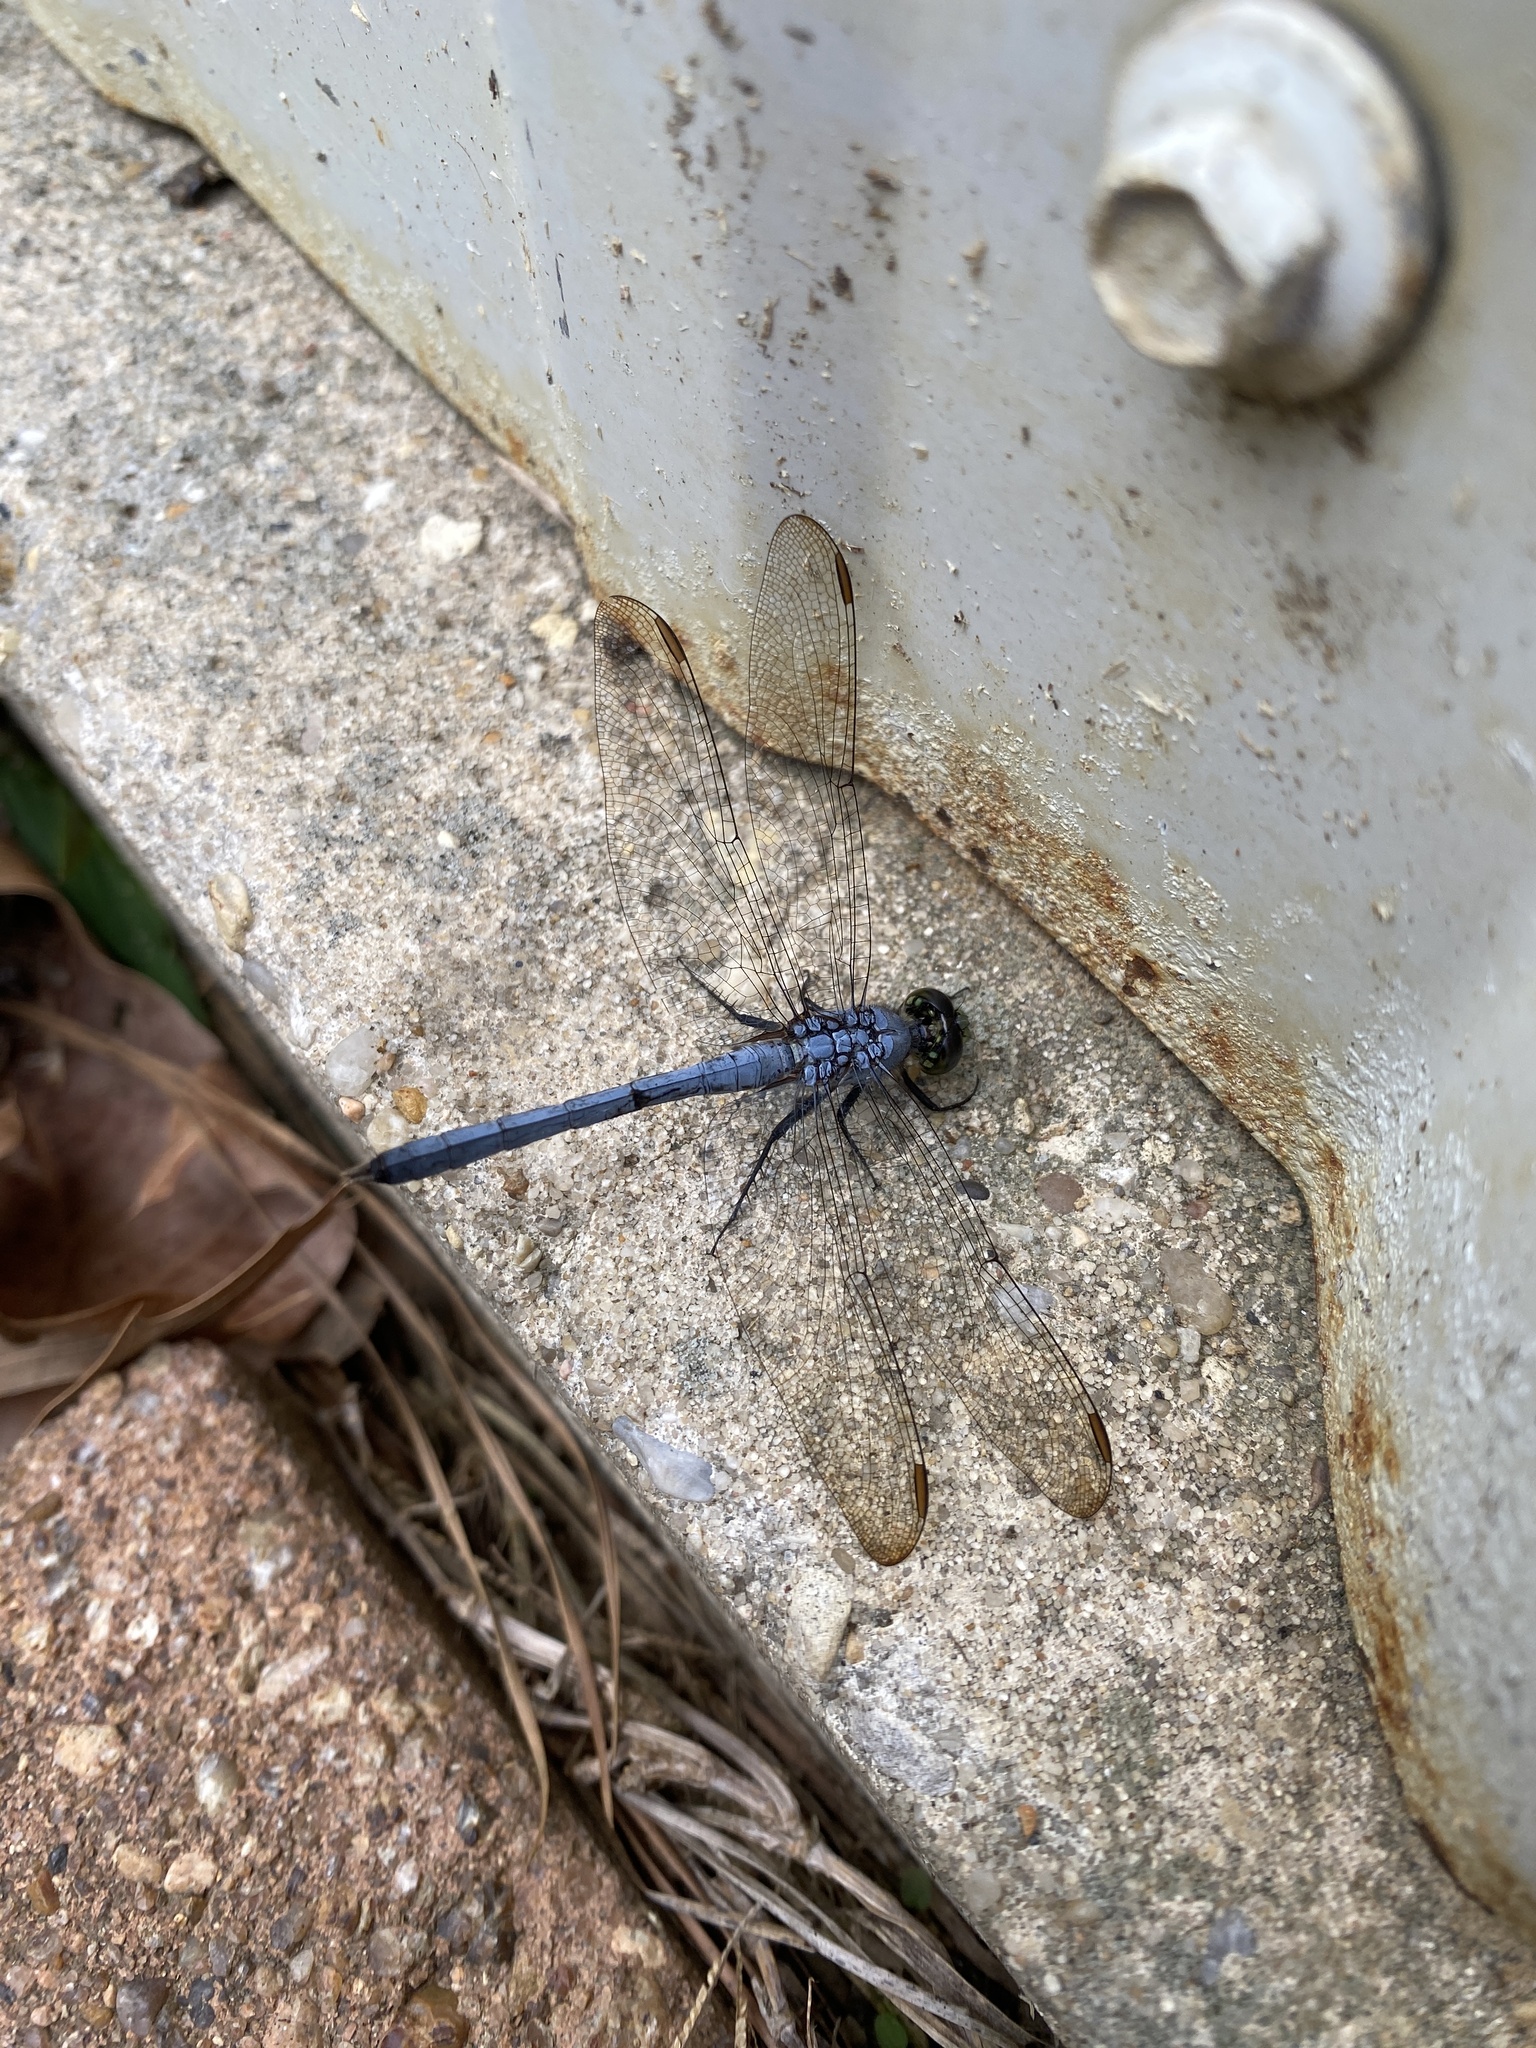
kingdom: Animalia
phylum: Arthropoda
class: Insecta
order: Odonata
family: Libellulidae
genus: Erythemis
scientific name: Erythemis simplicicollis
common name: Eastern pondhawk
